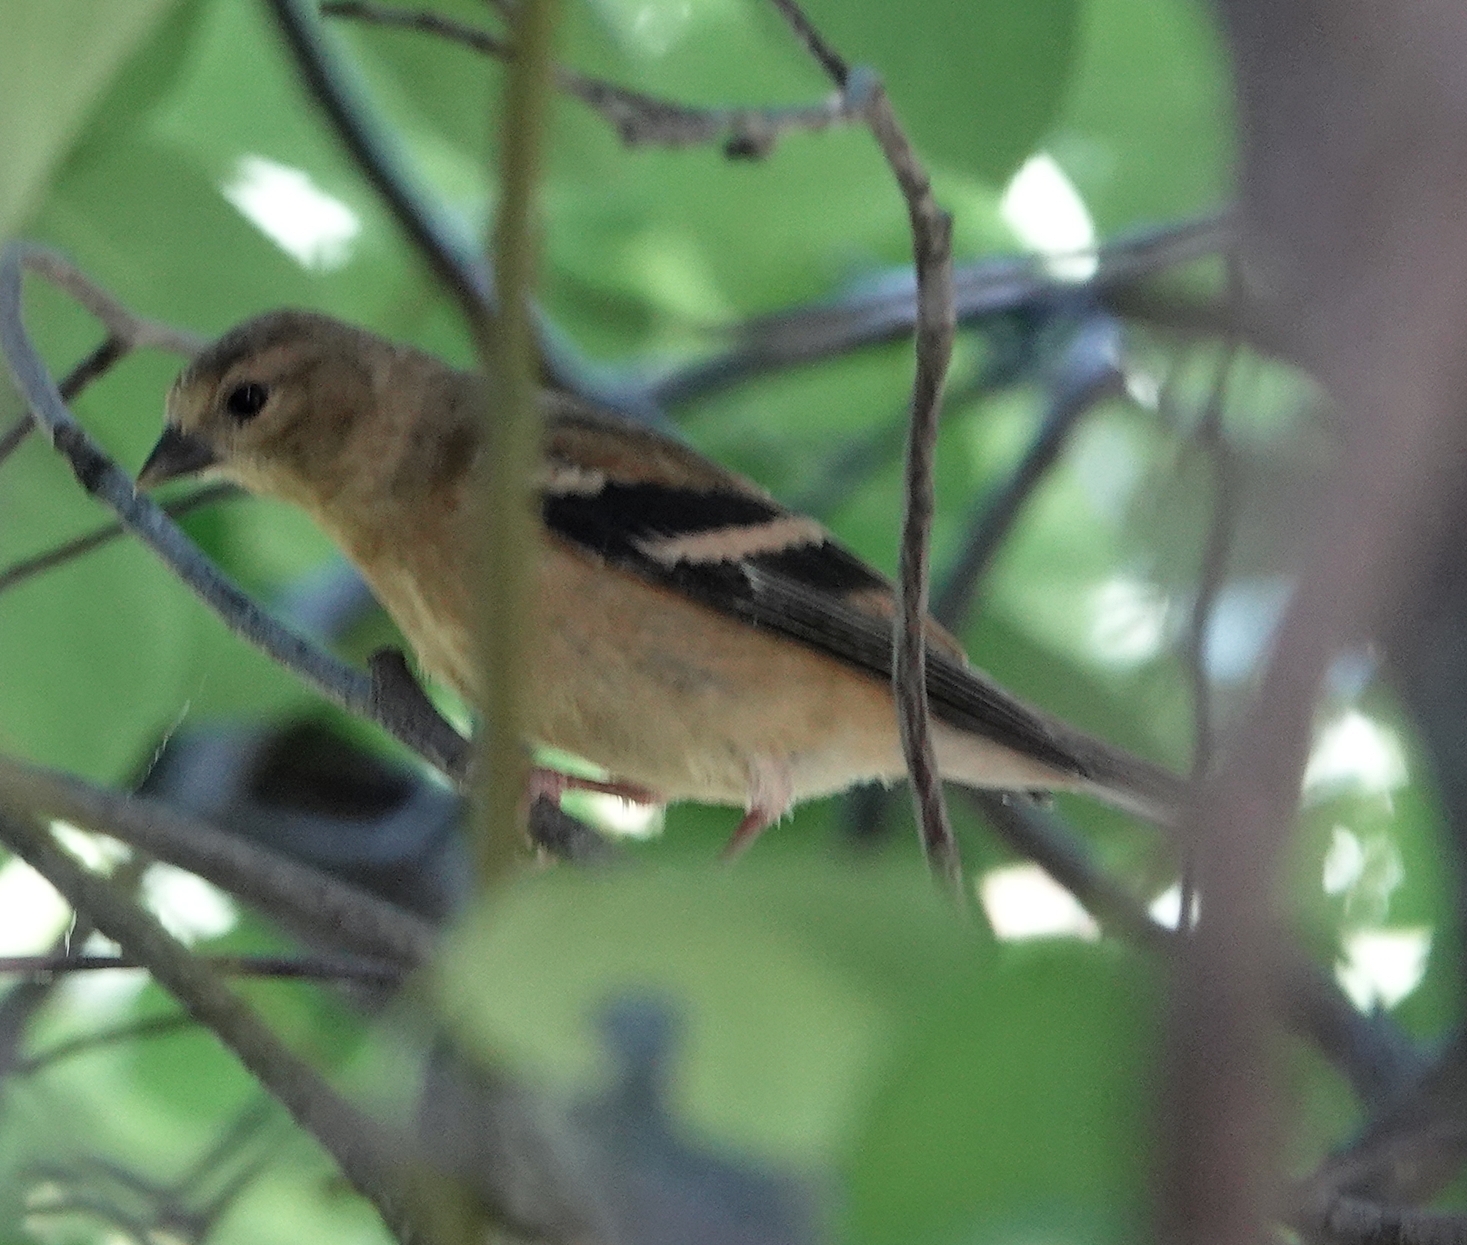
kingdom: Animalia
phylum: Chordata
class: Aves
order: Passeriformes
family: Fringillidae
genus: Spinus
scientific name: Spinus tristis
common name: American goldfinch
